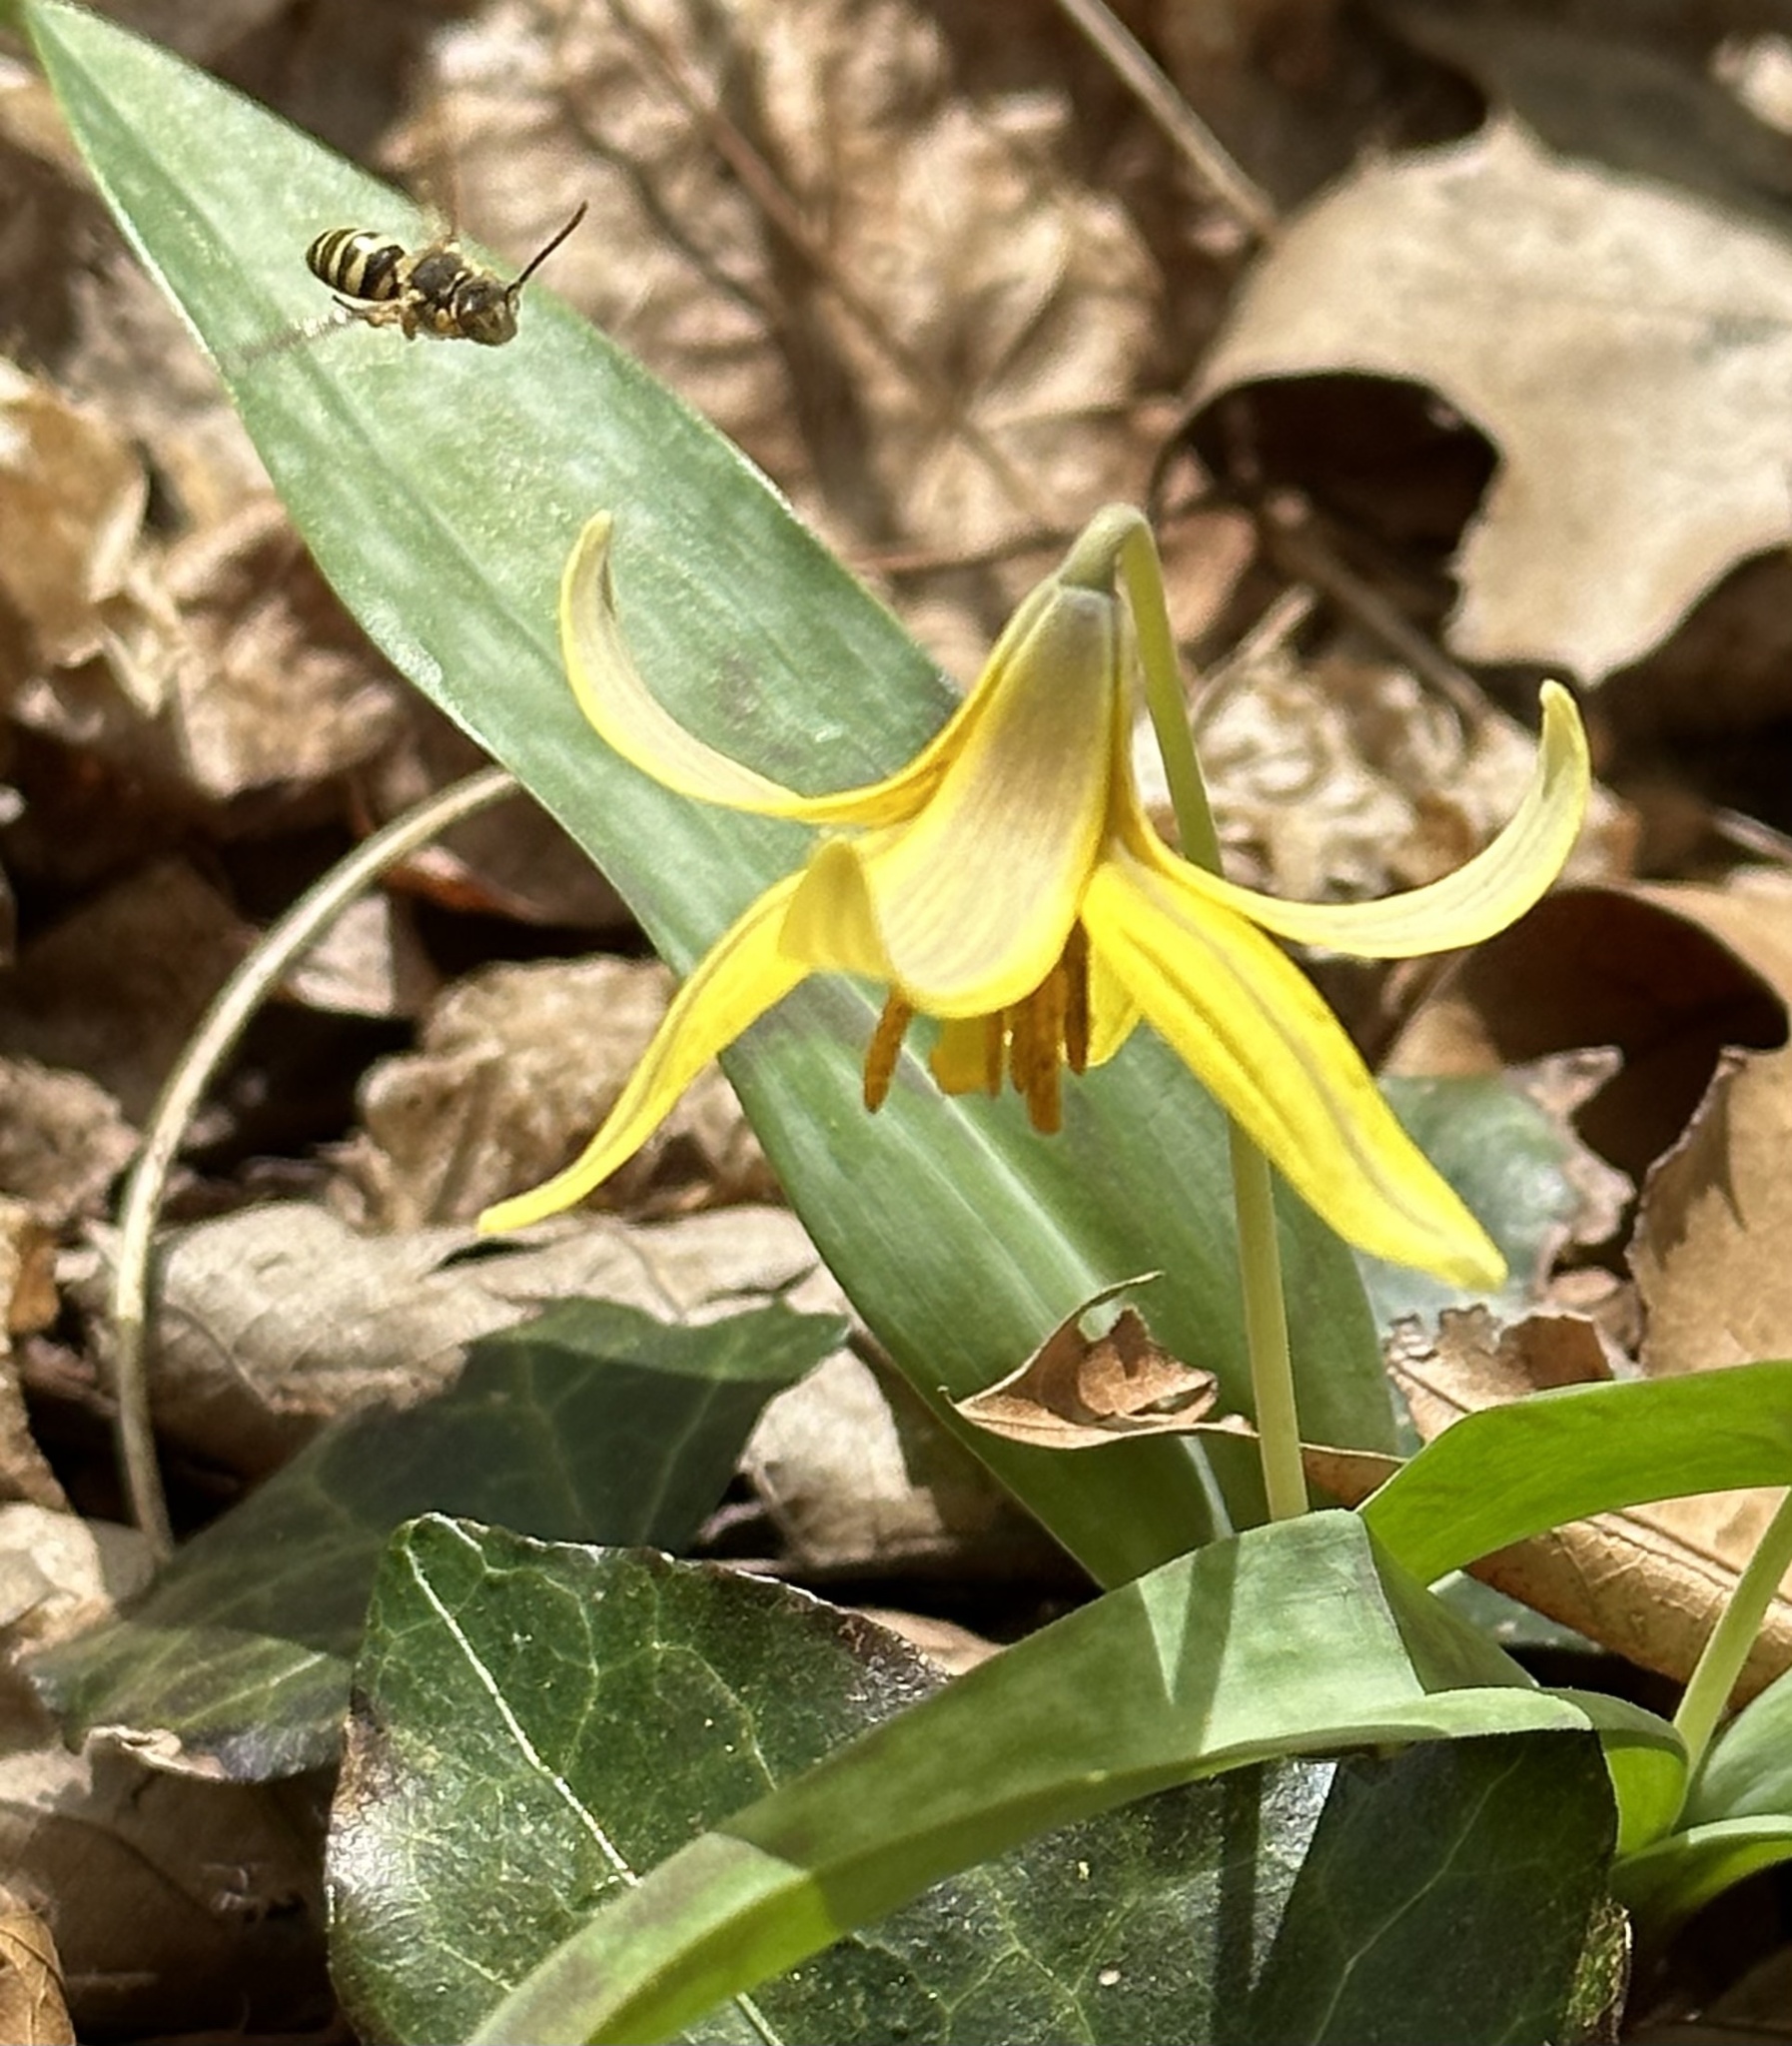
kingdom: Plantae
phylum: Tracheophyta
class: Liliopsida
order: Liliales
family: Liliaceae
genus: Erythronium
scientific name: Erythronium americanum
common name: Yellow adder's-tongue
